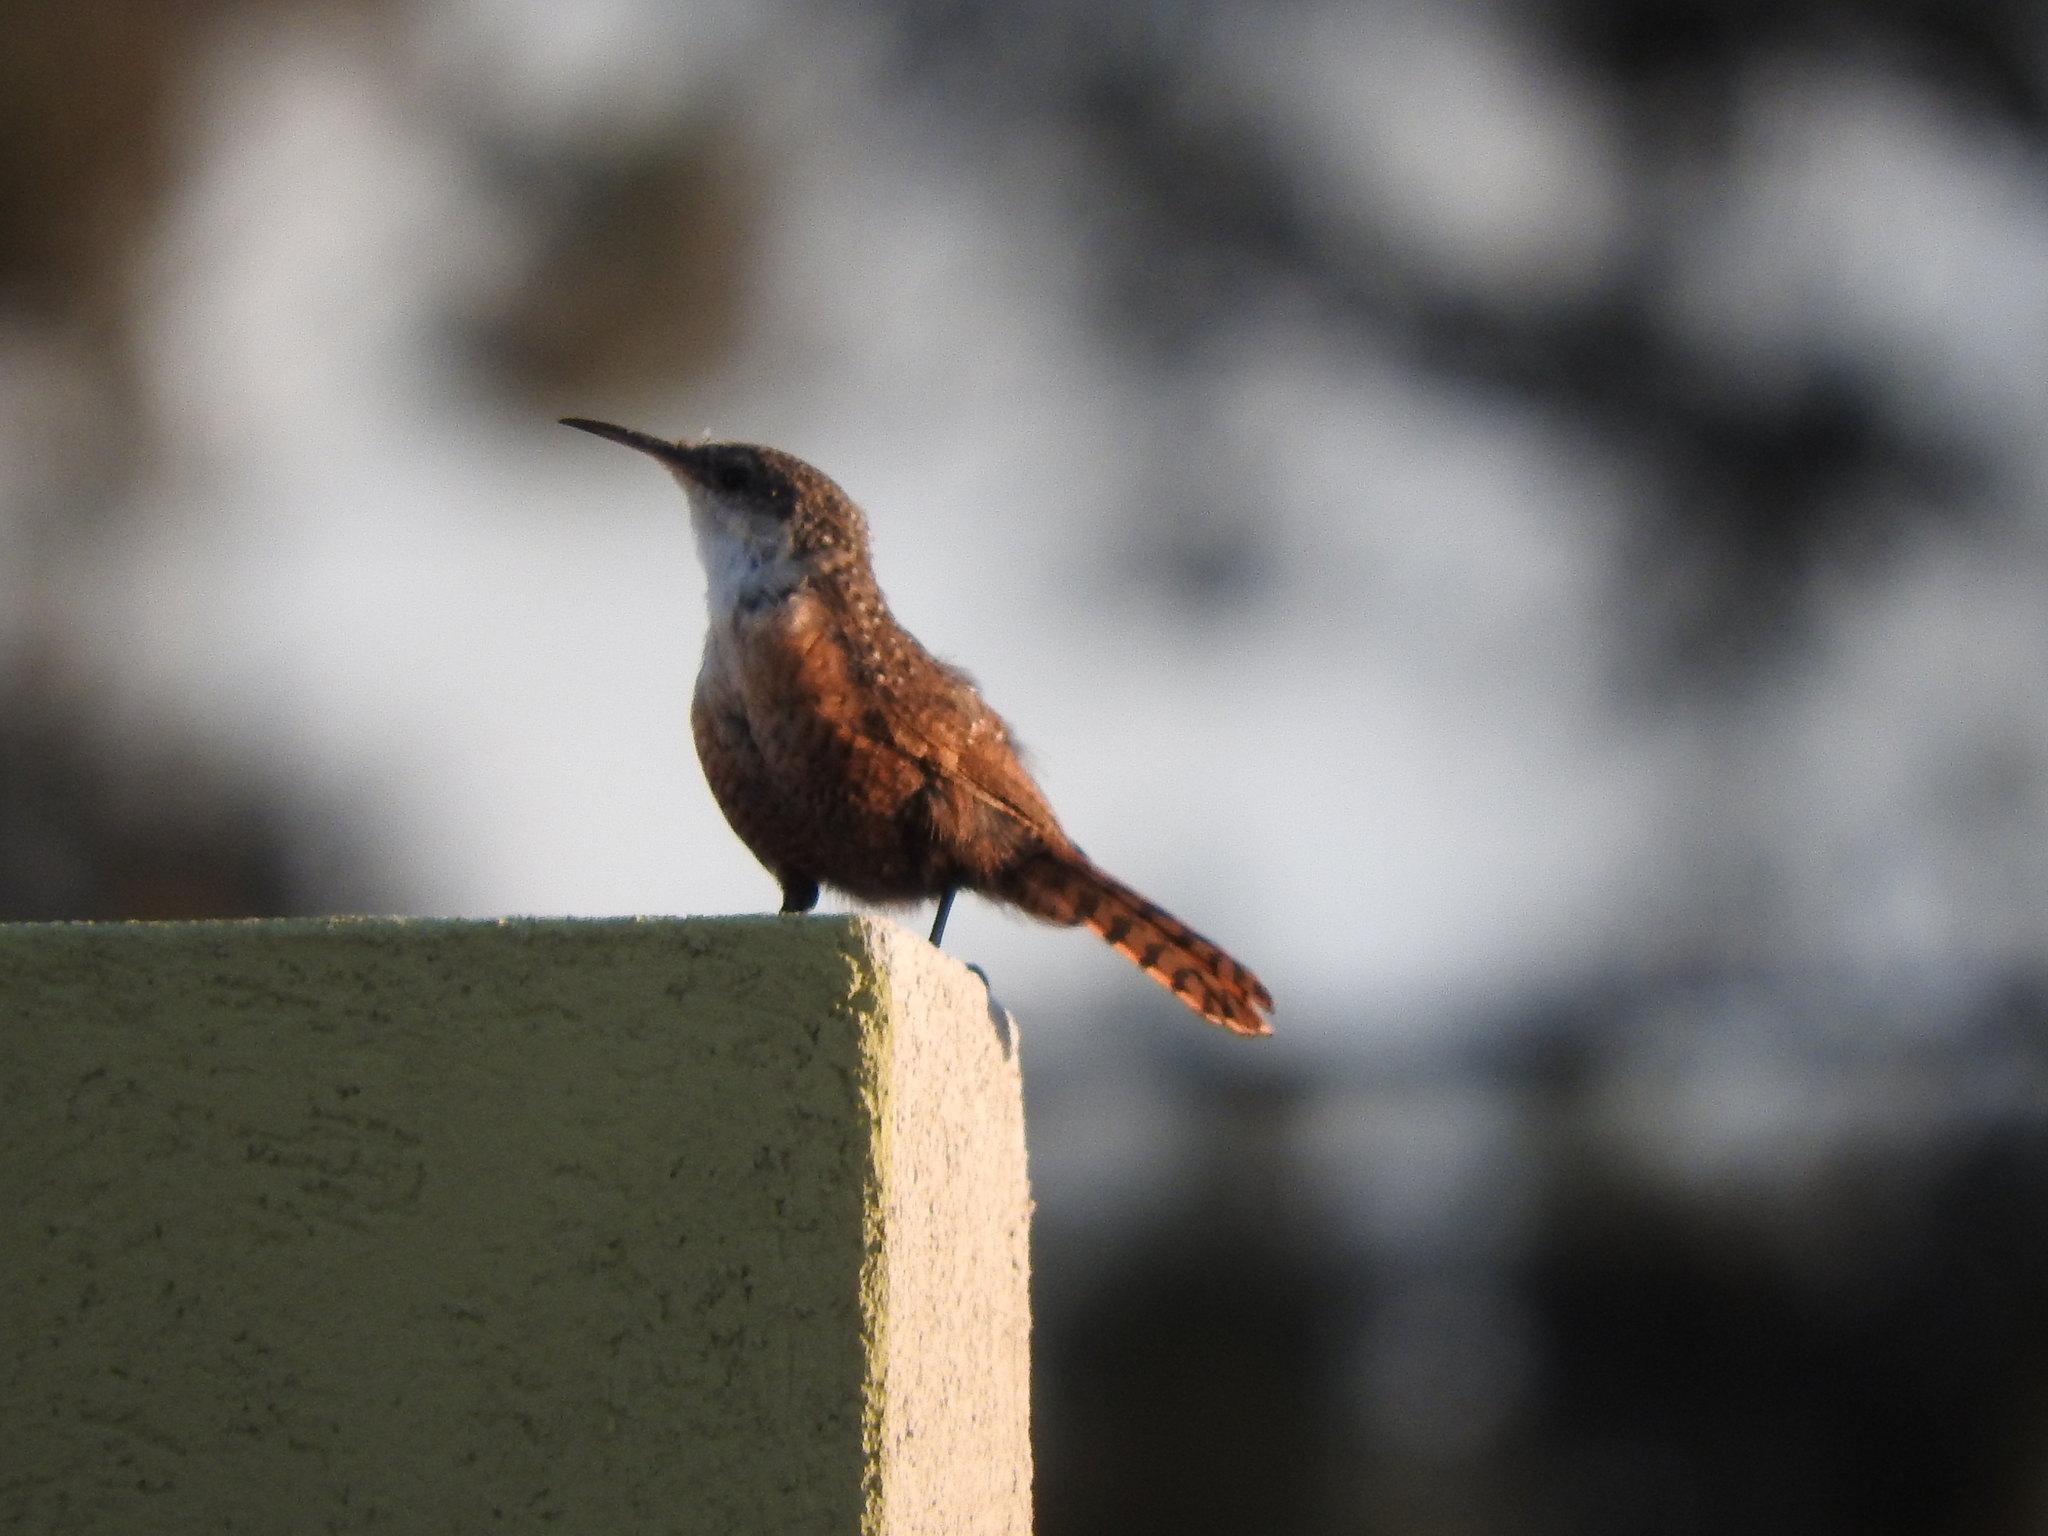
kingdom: Animalia
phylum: Chordata
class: Aves
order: Passeriformes
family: Troglodytidae
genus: Catherpes
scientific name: Catherpes mexicanus
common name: Canyon wren
